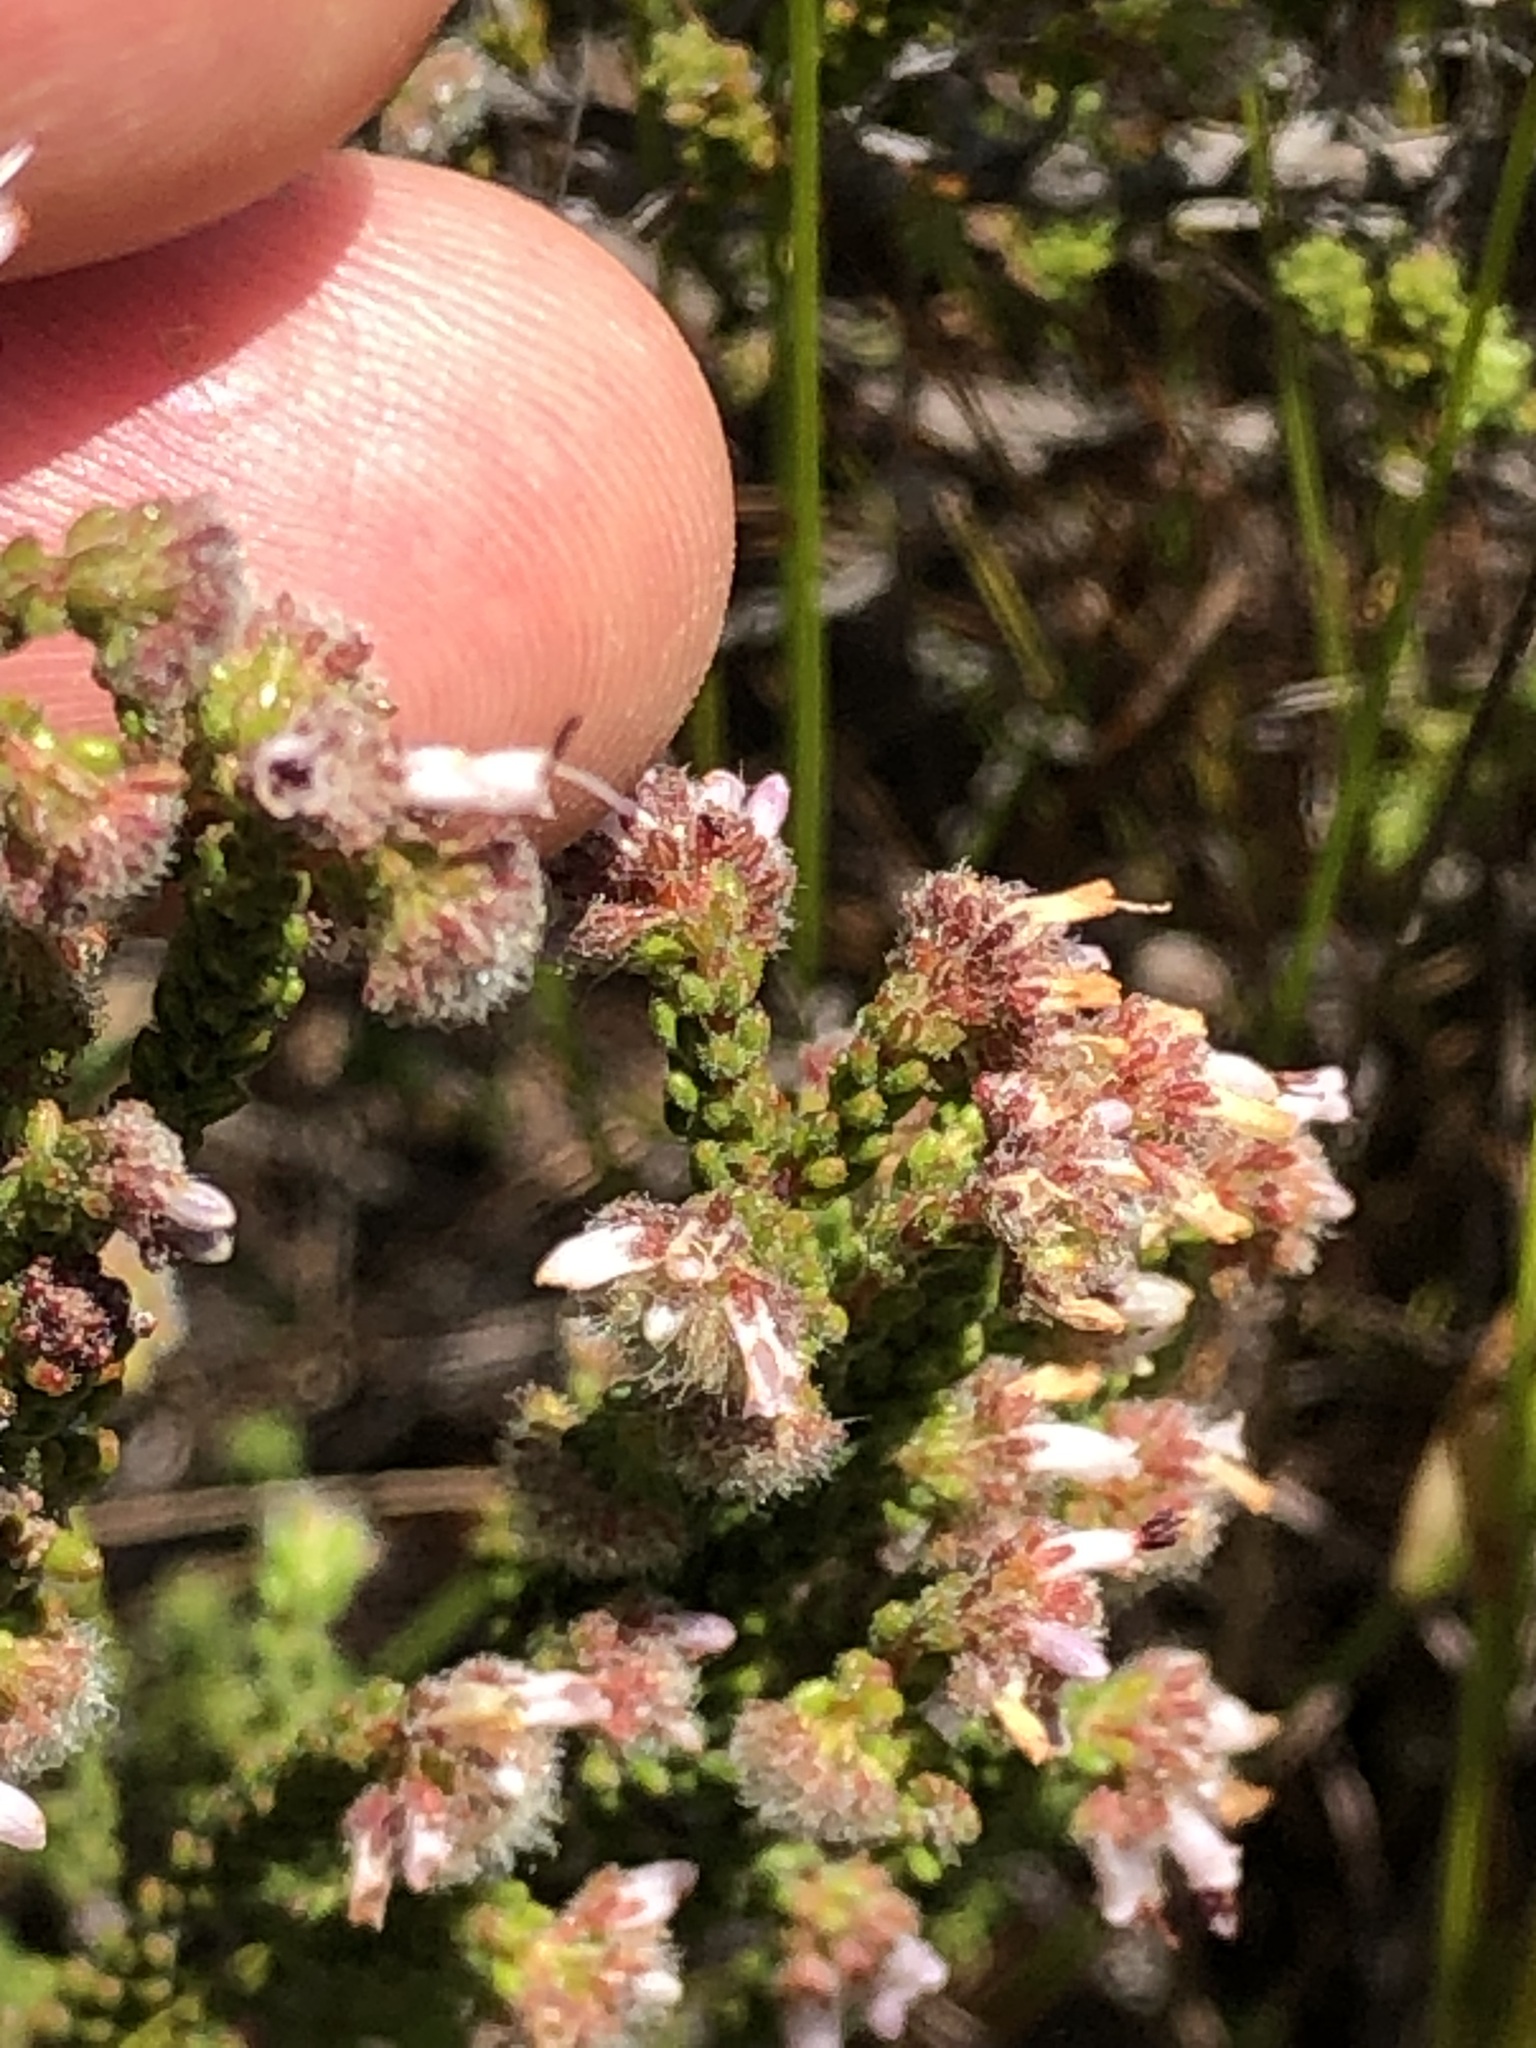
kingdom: Plantae
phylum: Tracheophyta
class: Magnoliopsida
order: Ericales
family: Ericaceae
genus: Erica
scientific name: Erica similis
